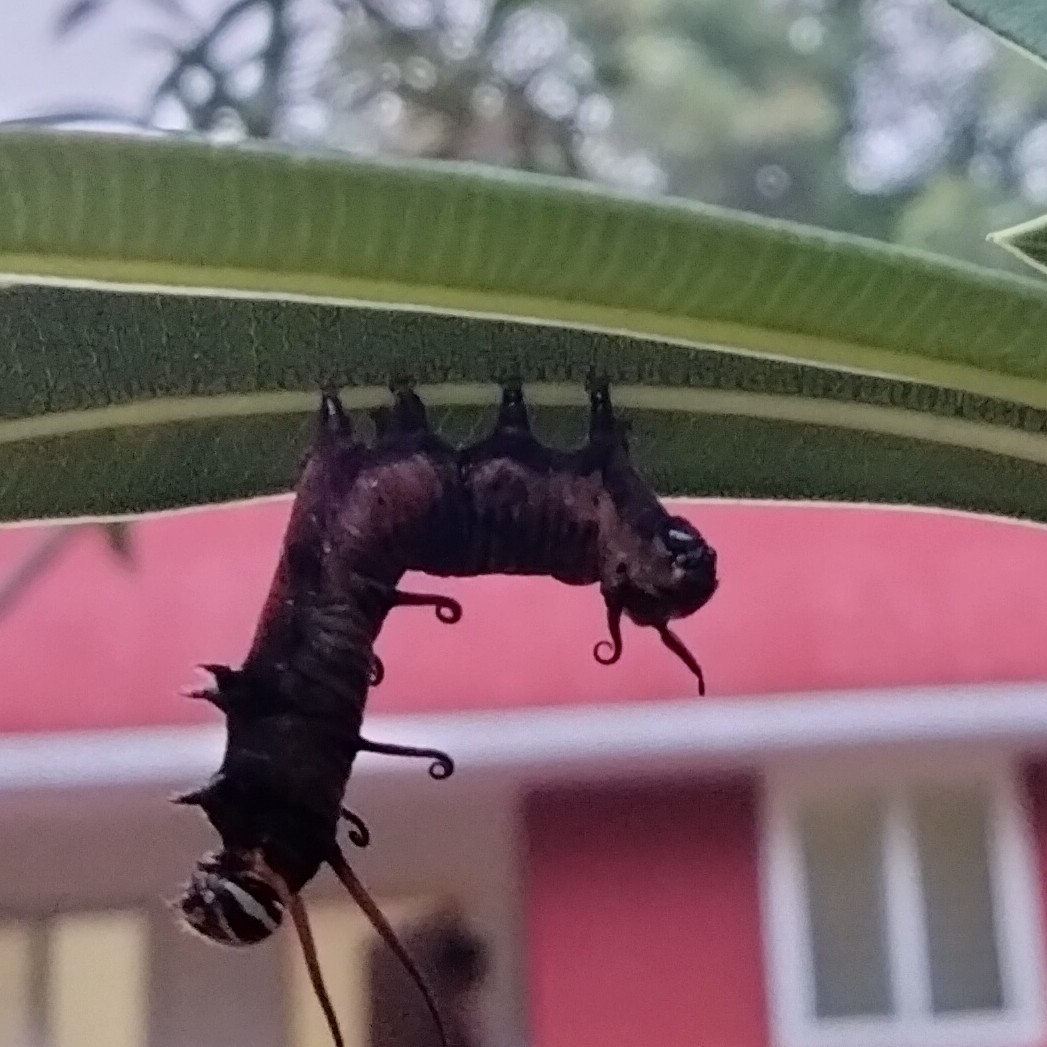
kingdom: Animalia
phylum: Arthropoda
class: Insecta
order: Lepidoptera
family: Nymphalidae
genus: Euploea
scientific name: Euploea core
